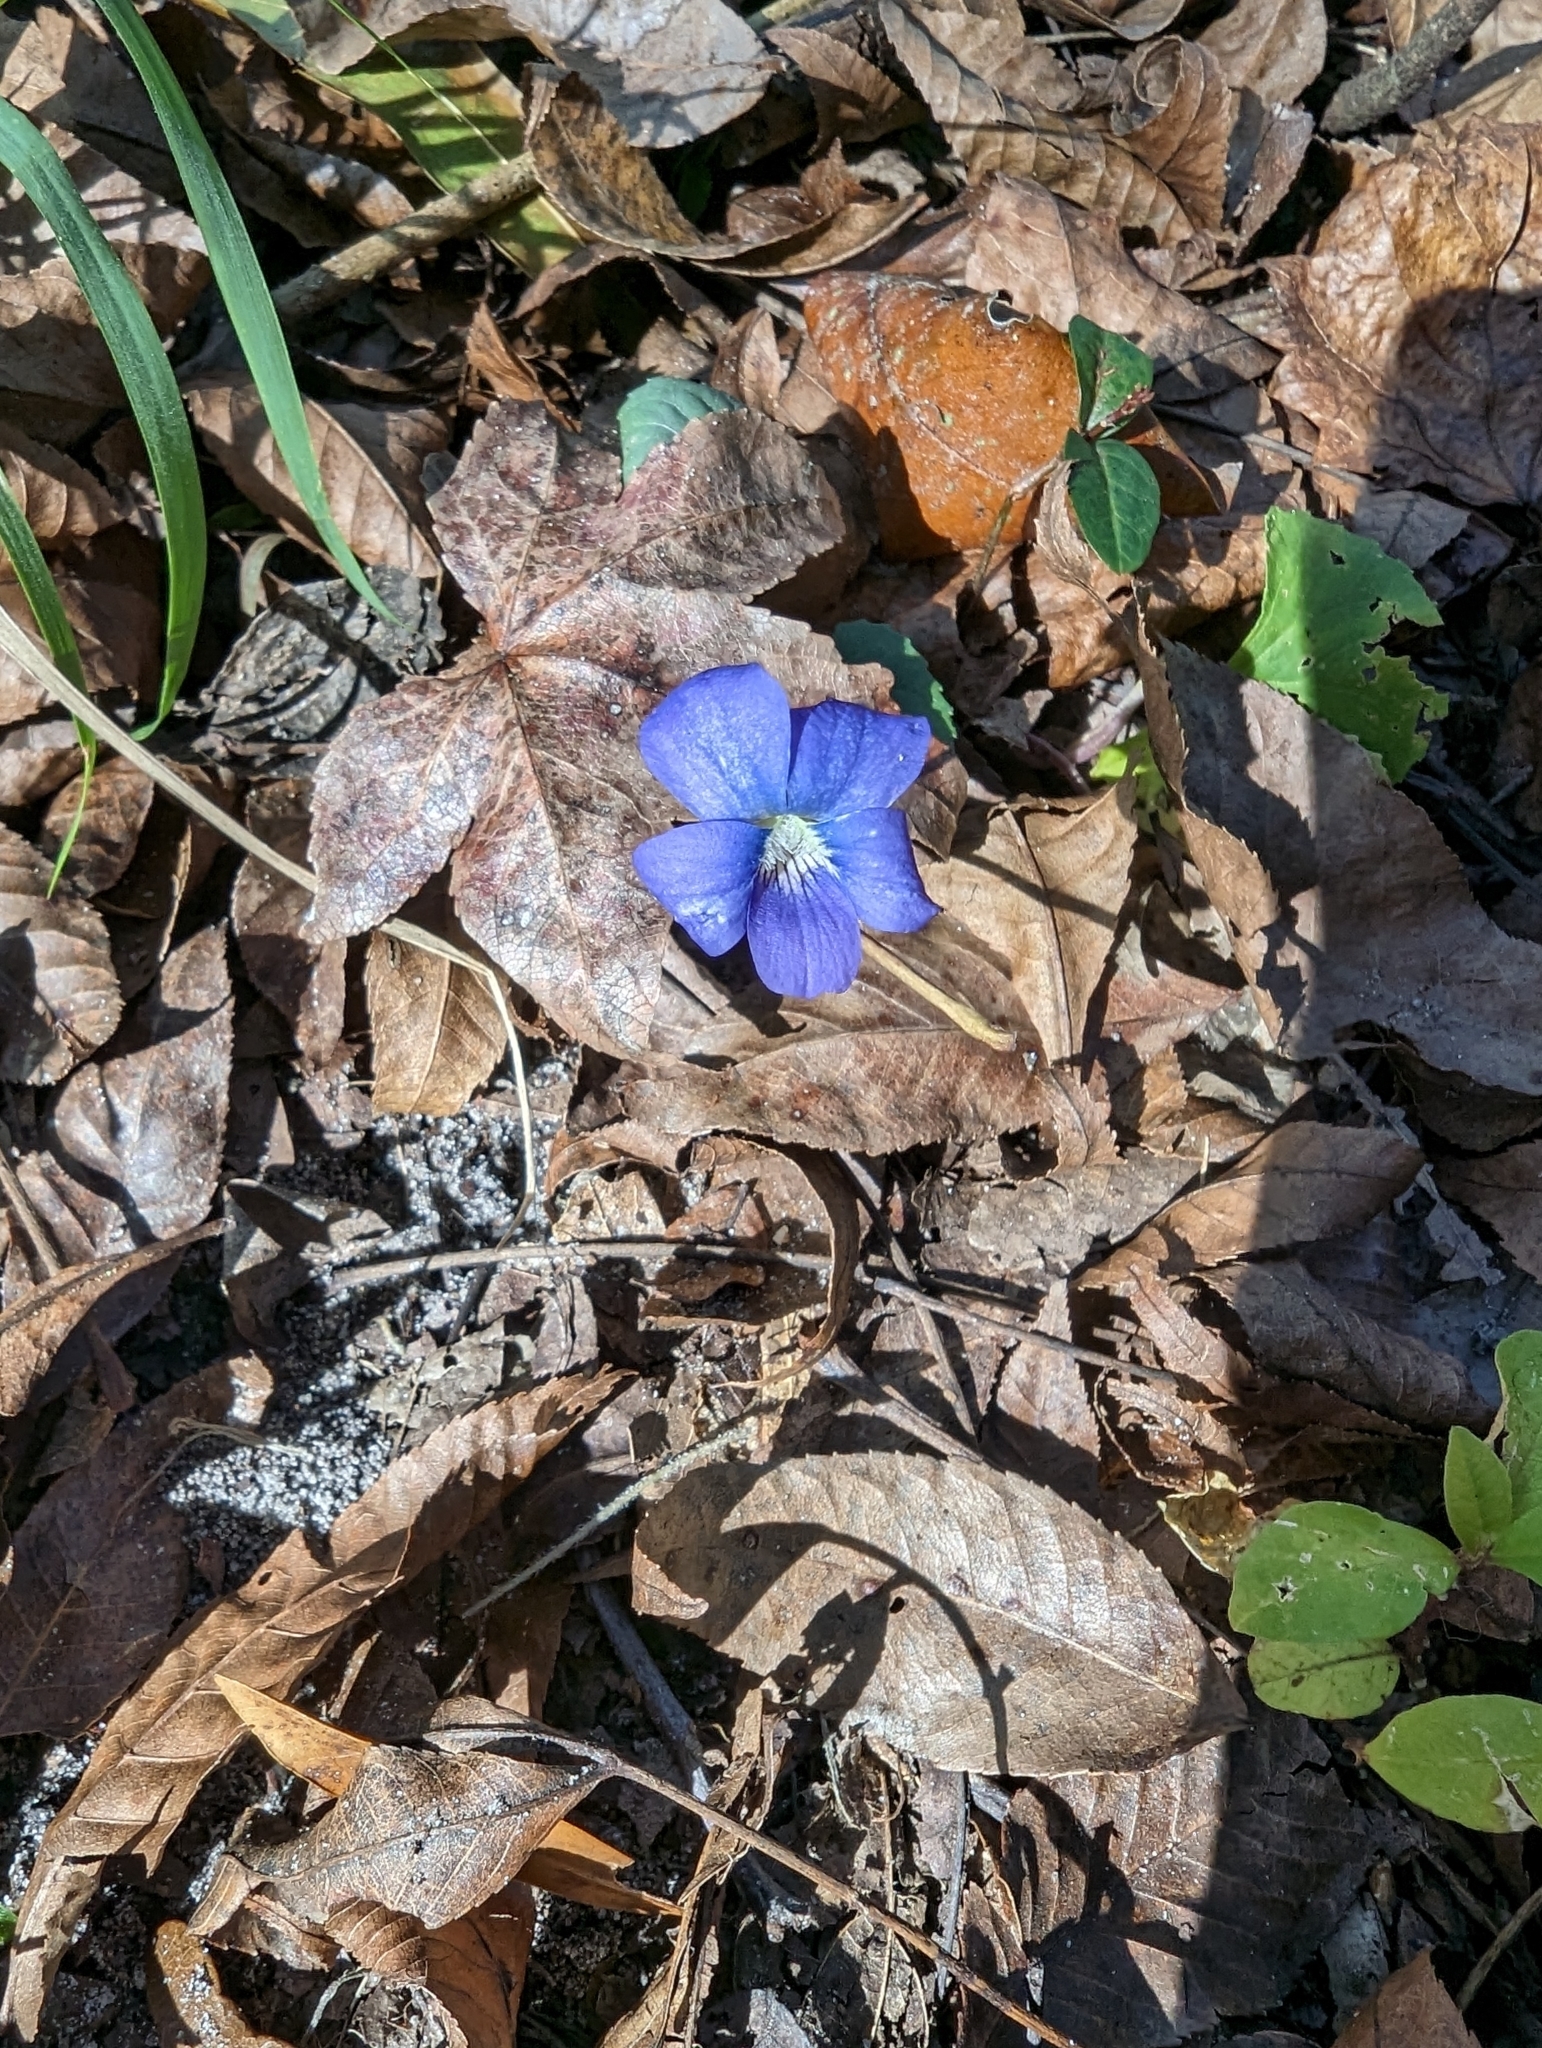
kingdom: Plantae
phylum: Tracheophyta
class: Magnoliopsida
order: Malpighiales
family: Violaceae
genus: Viola
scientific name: Viola sororia
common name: Dooryard violet
